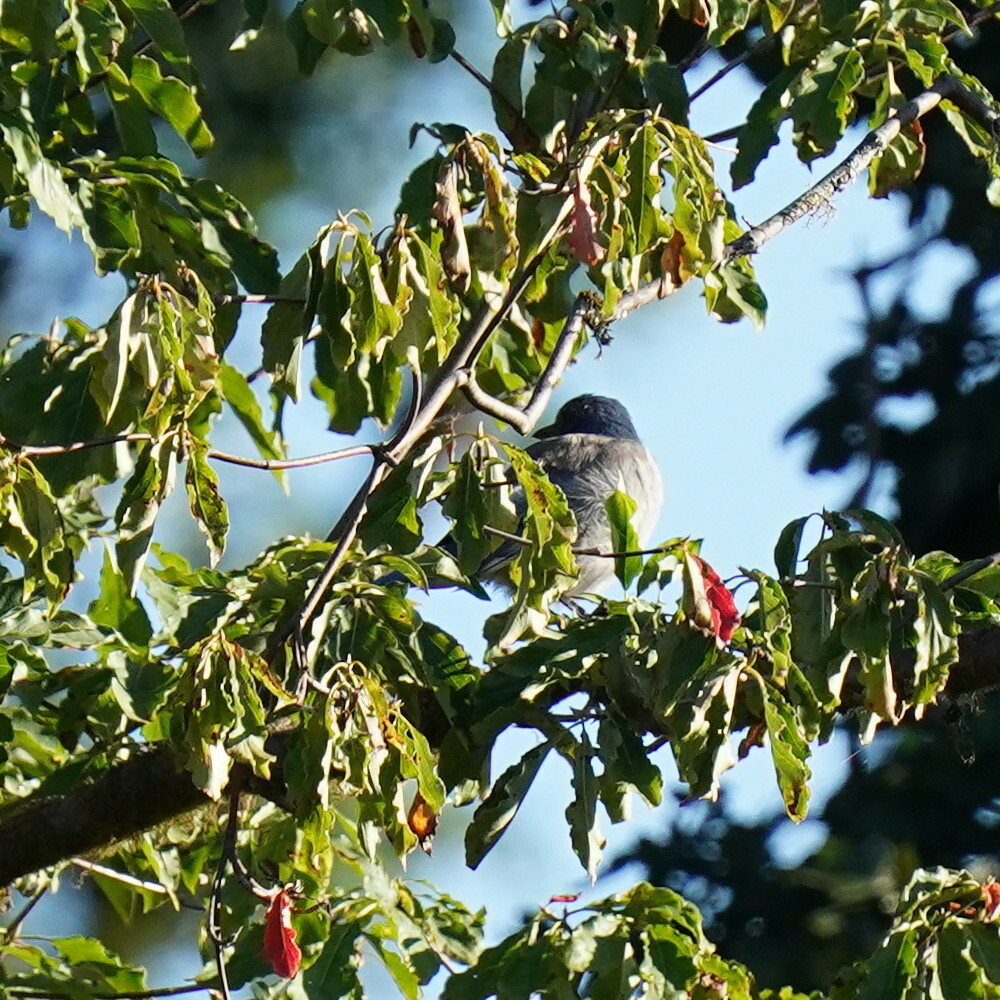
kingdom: Animalia
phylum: Chordata
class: Aves
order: Passeriformes
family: Corvidae
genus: Aphelocoma
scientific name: Aphelocoma californica
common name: California scrub-jay
